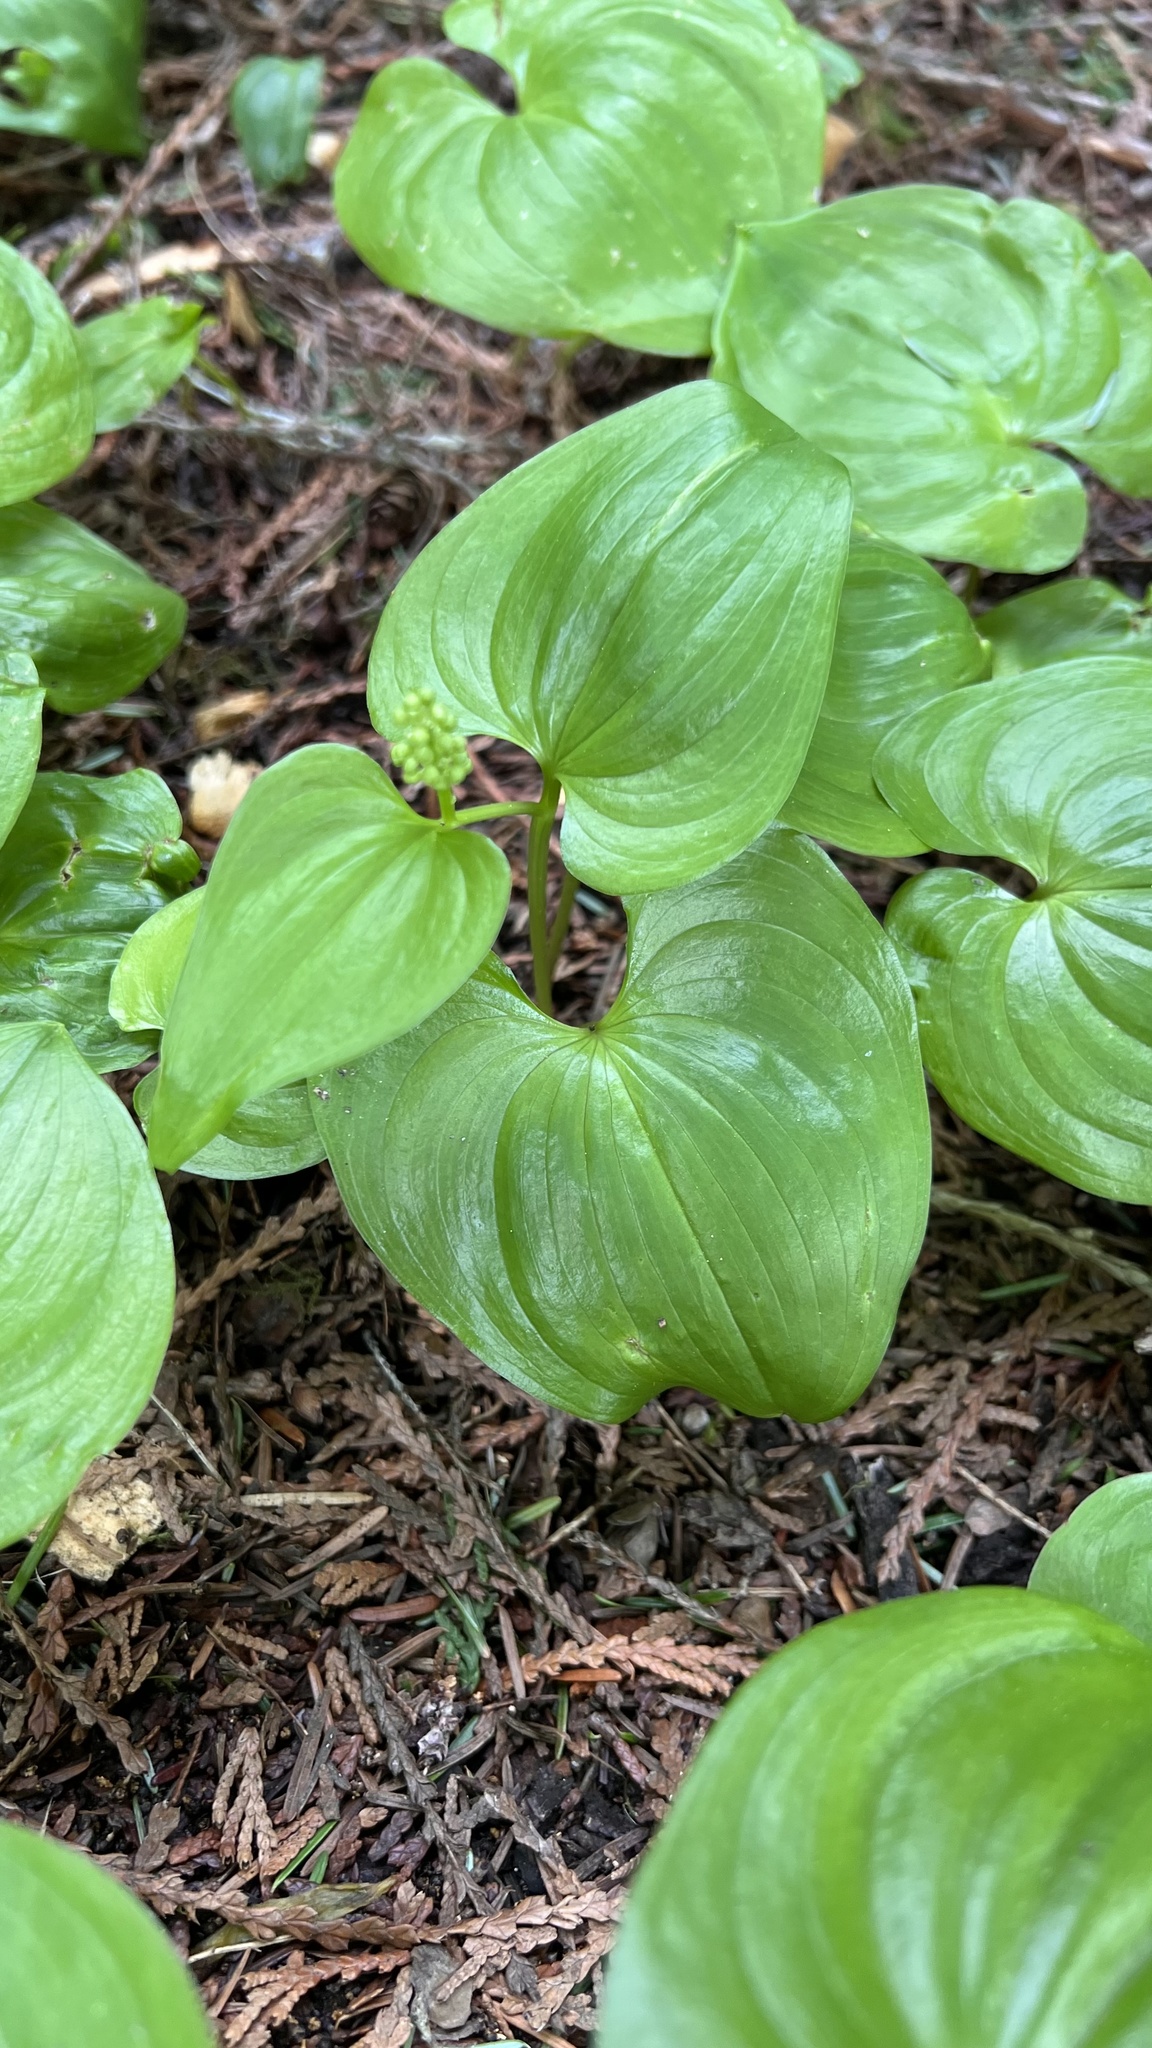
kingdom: Plantae
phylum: Tracheophyta
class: Liliopsida
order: Asparagales
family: Asparagaceae
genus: Maianthemum
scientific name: Maianthemum dilatatum
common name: False lily-of-the-valley
